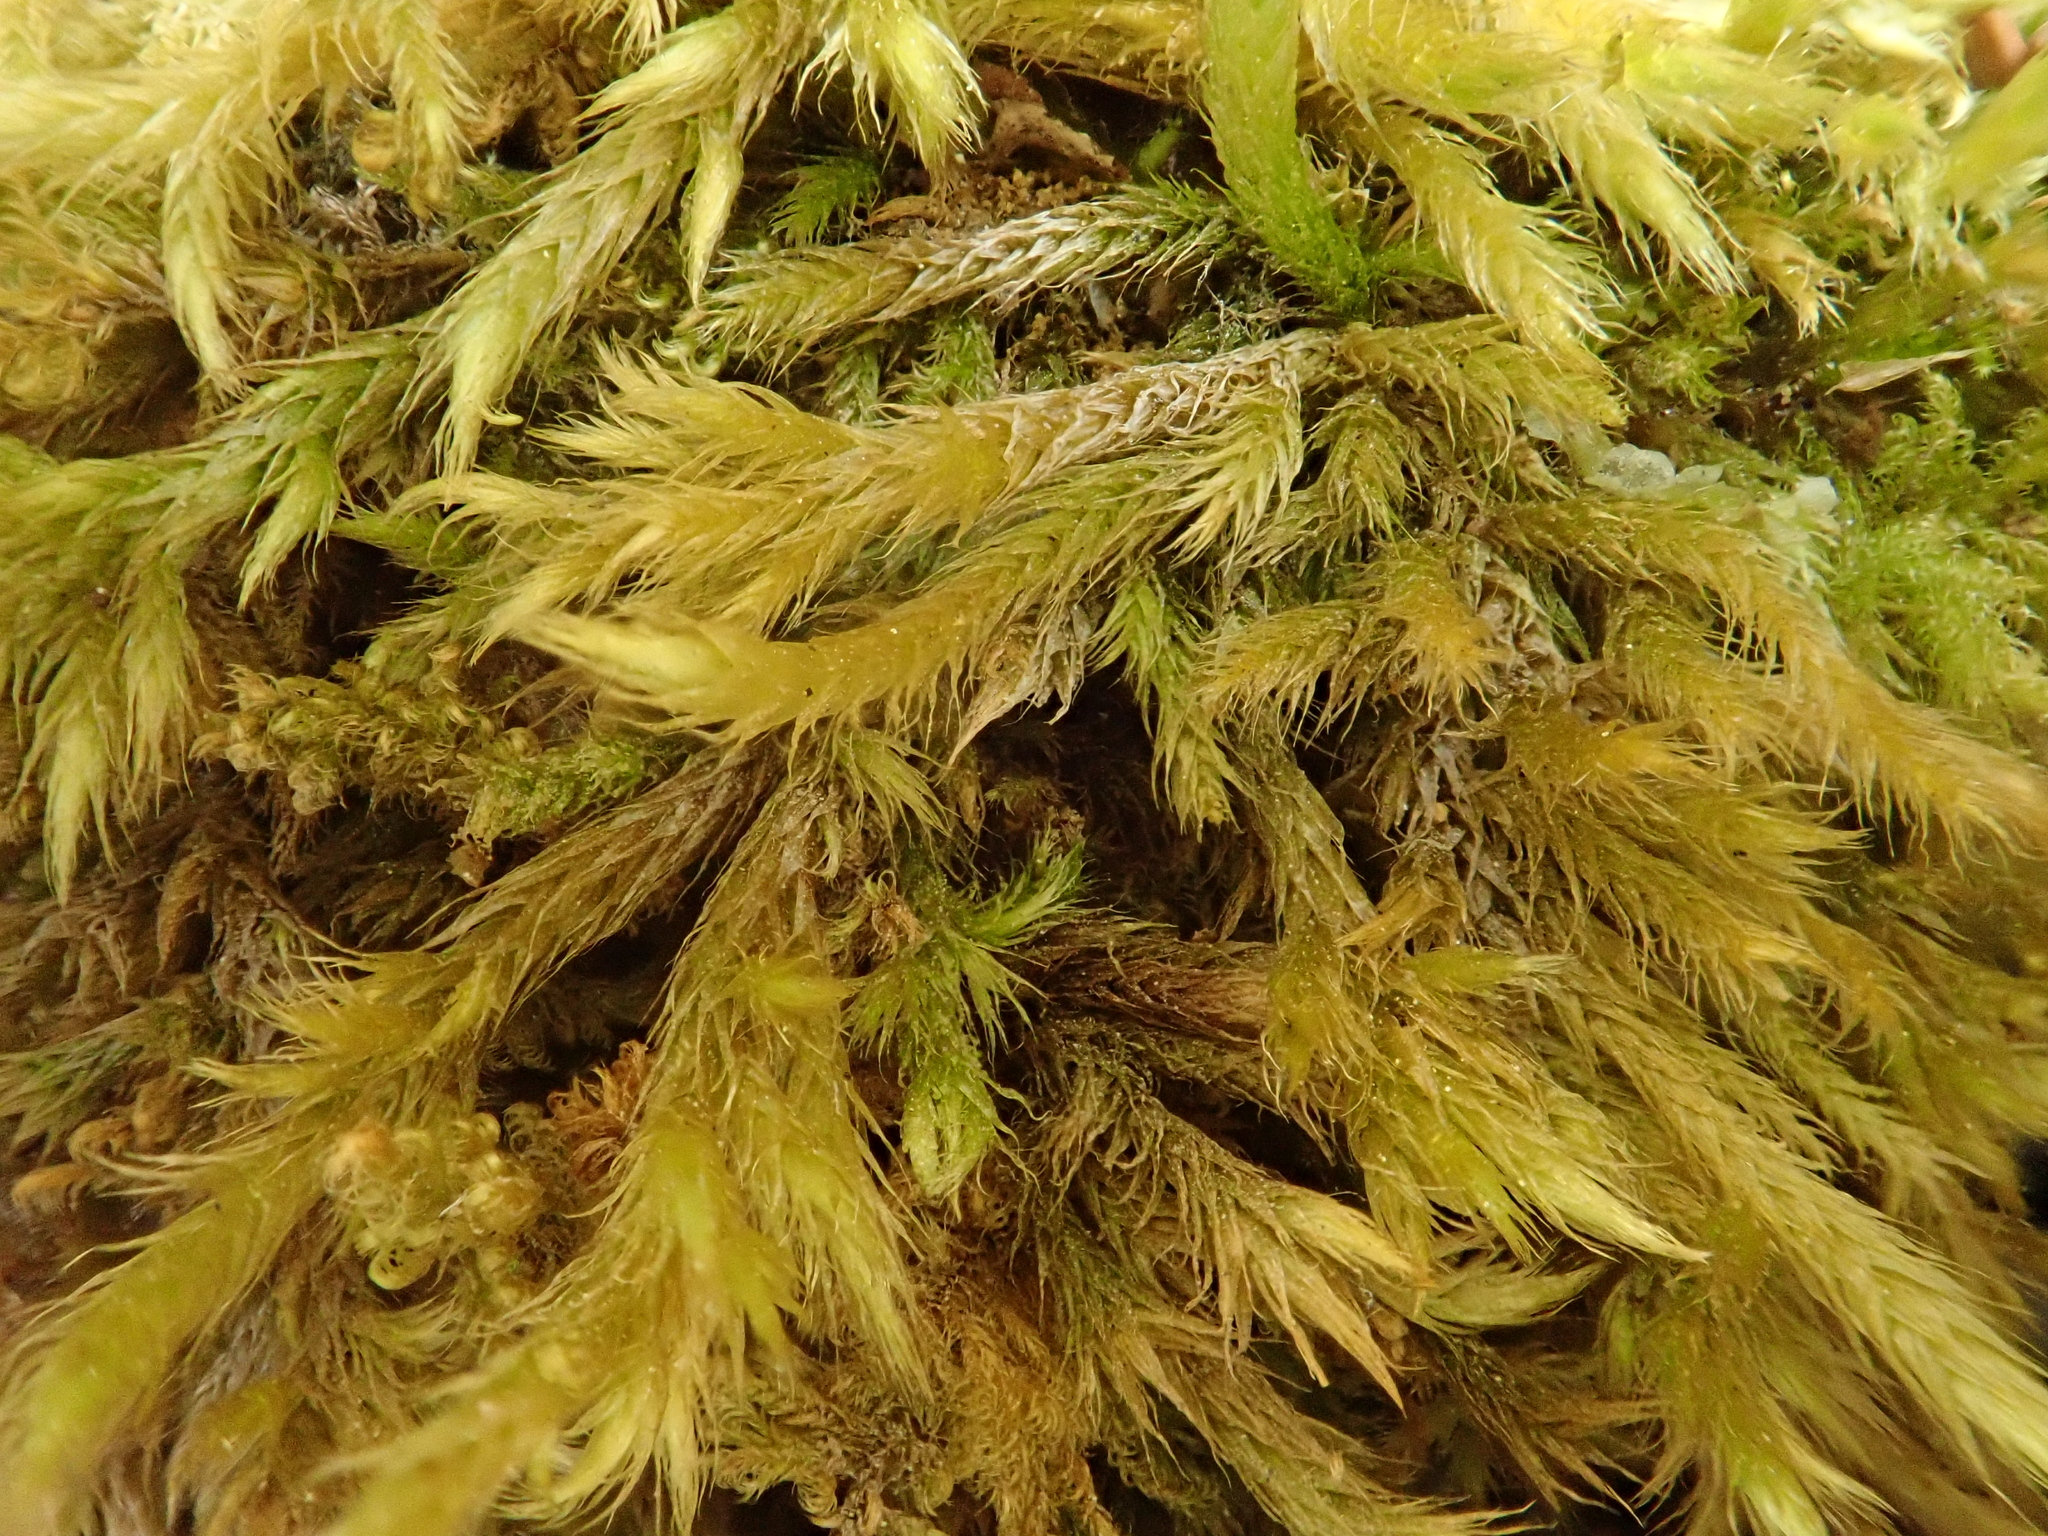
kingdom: Plantae
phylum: Bryophyta
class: Bryopsida
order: Hypnales
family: Brachytheciaceae
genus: Brachythecium
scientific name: Brachythecium glareosum
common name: Streaky feather-moss
